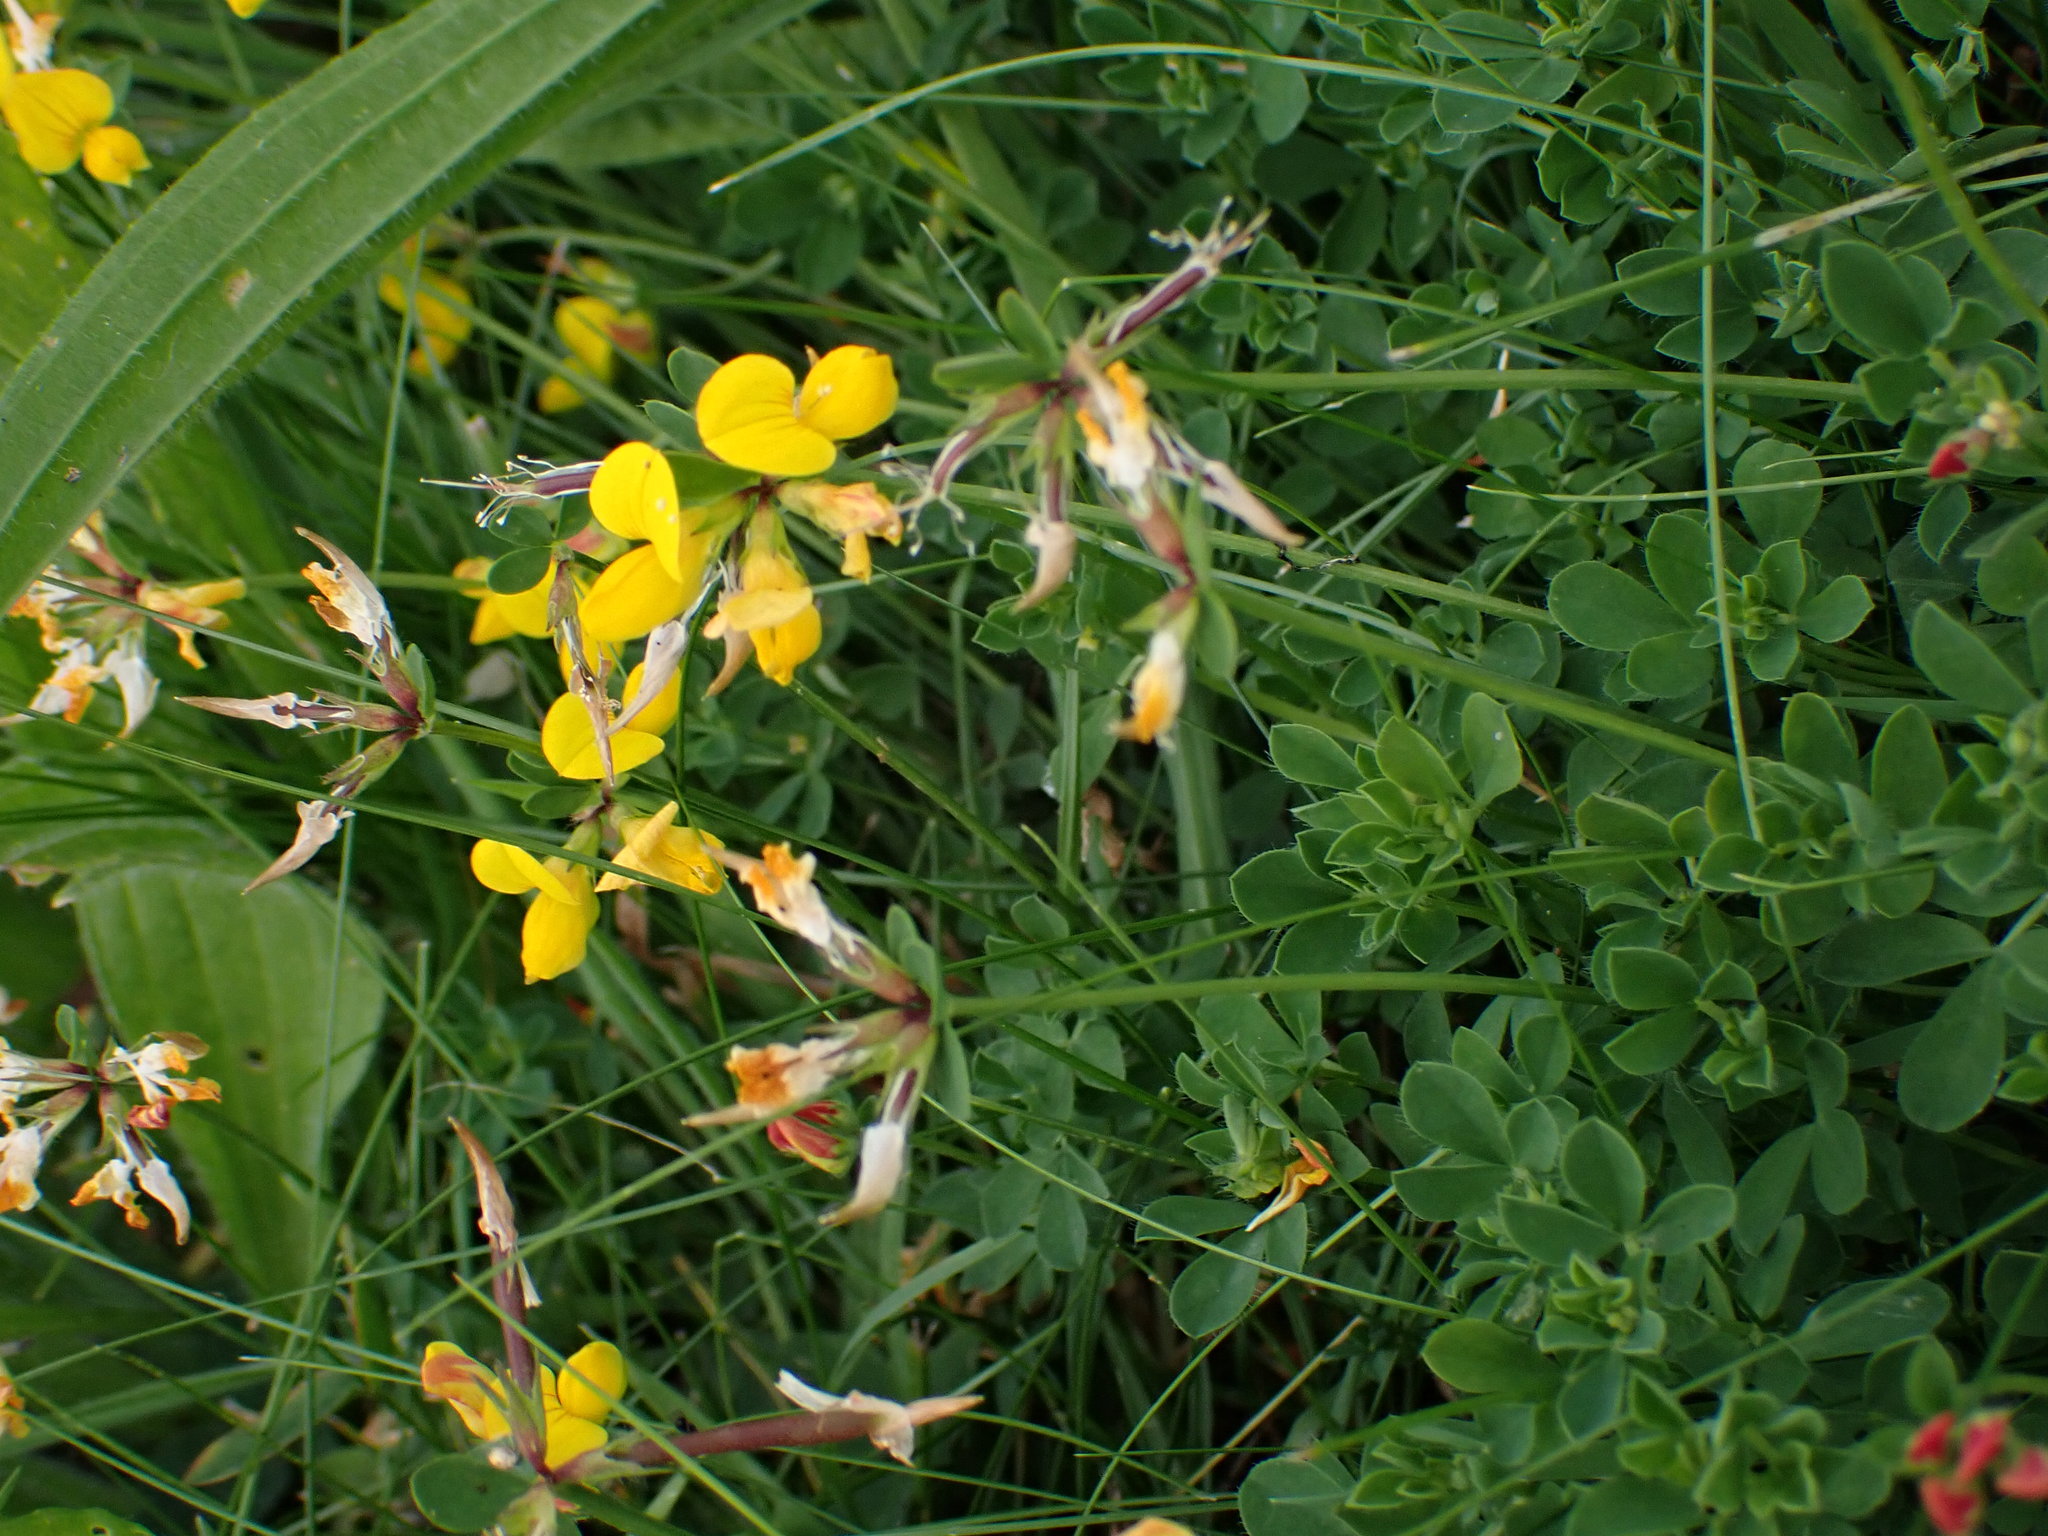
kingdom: Plantae
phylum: Tracheophyta
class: Magnoliopsida
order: Fabales
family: Fabaceae
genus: Lotus
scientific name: Lotus corniculatus
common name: Common bird's-foot-trefoil
